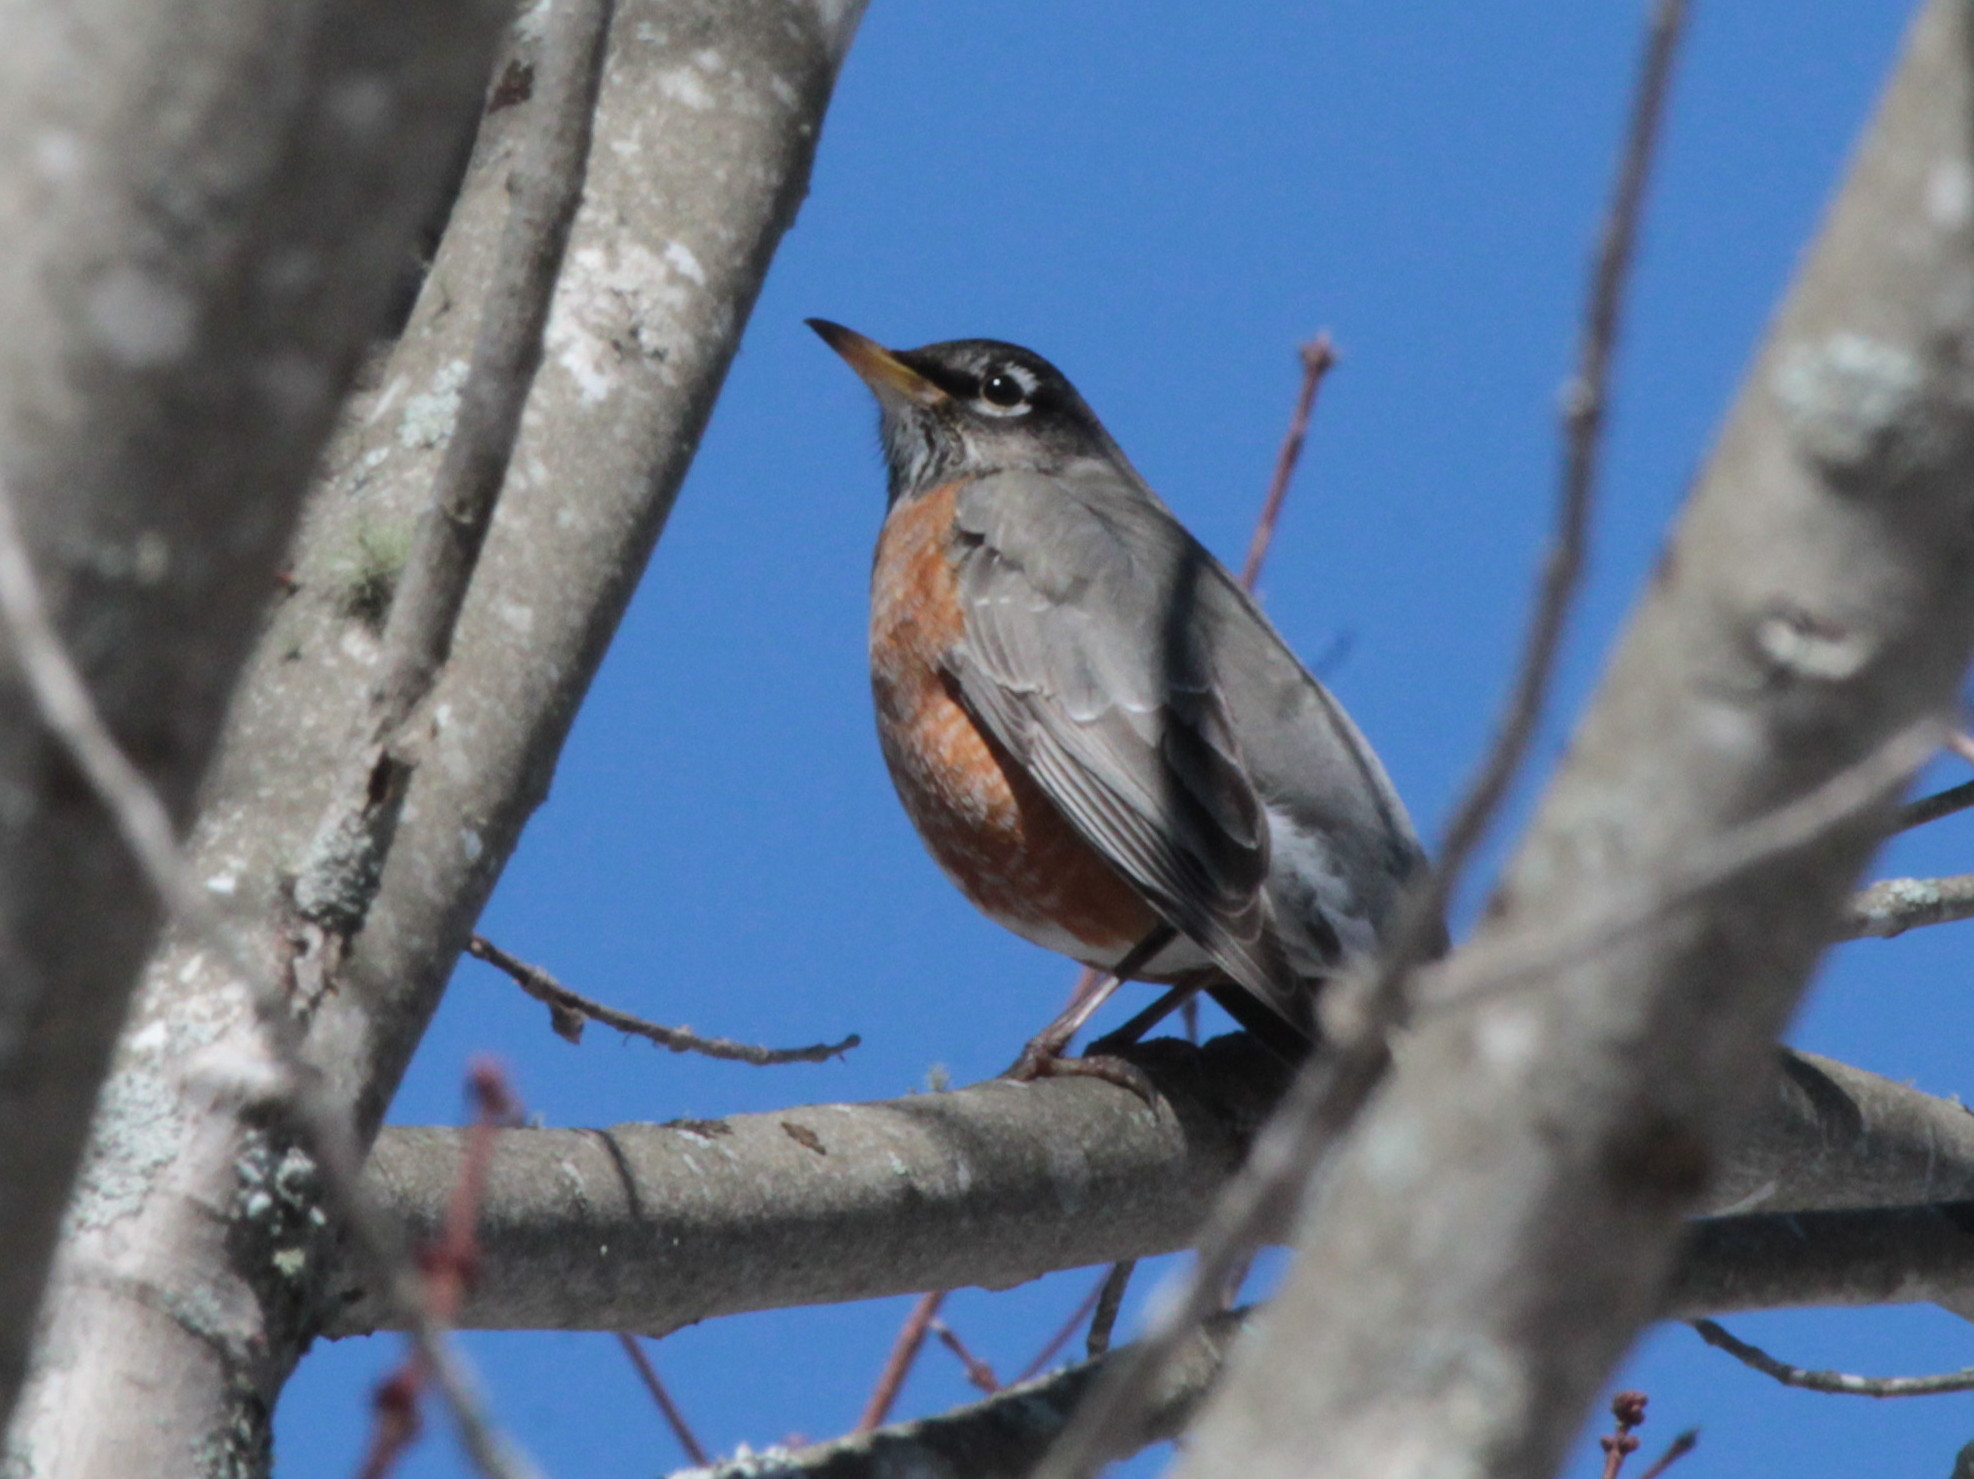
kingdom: Animalia
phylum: Chordata
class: Aves
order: Passeriformes
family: Turdidae
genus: Turdus
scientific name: Turdus migratorius
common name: American robin
